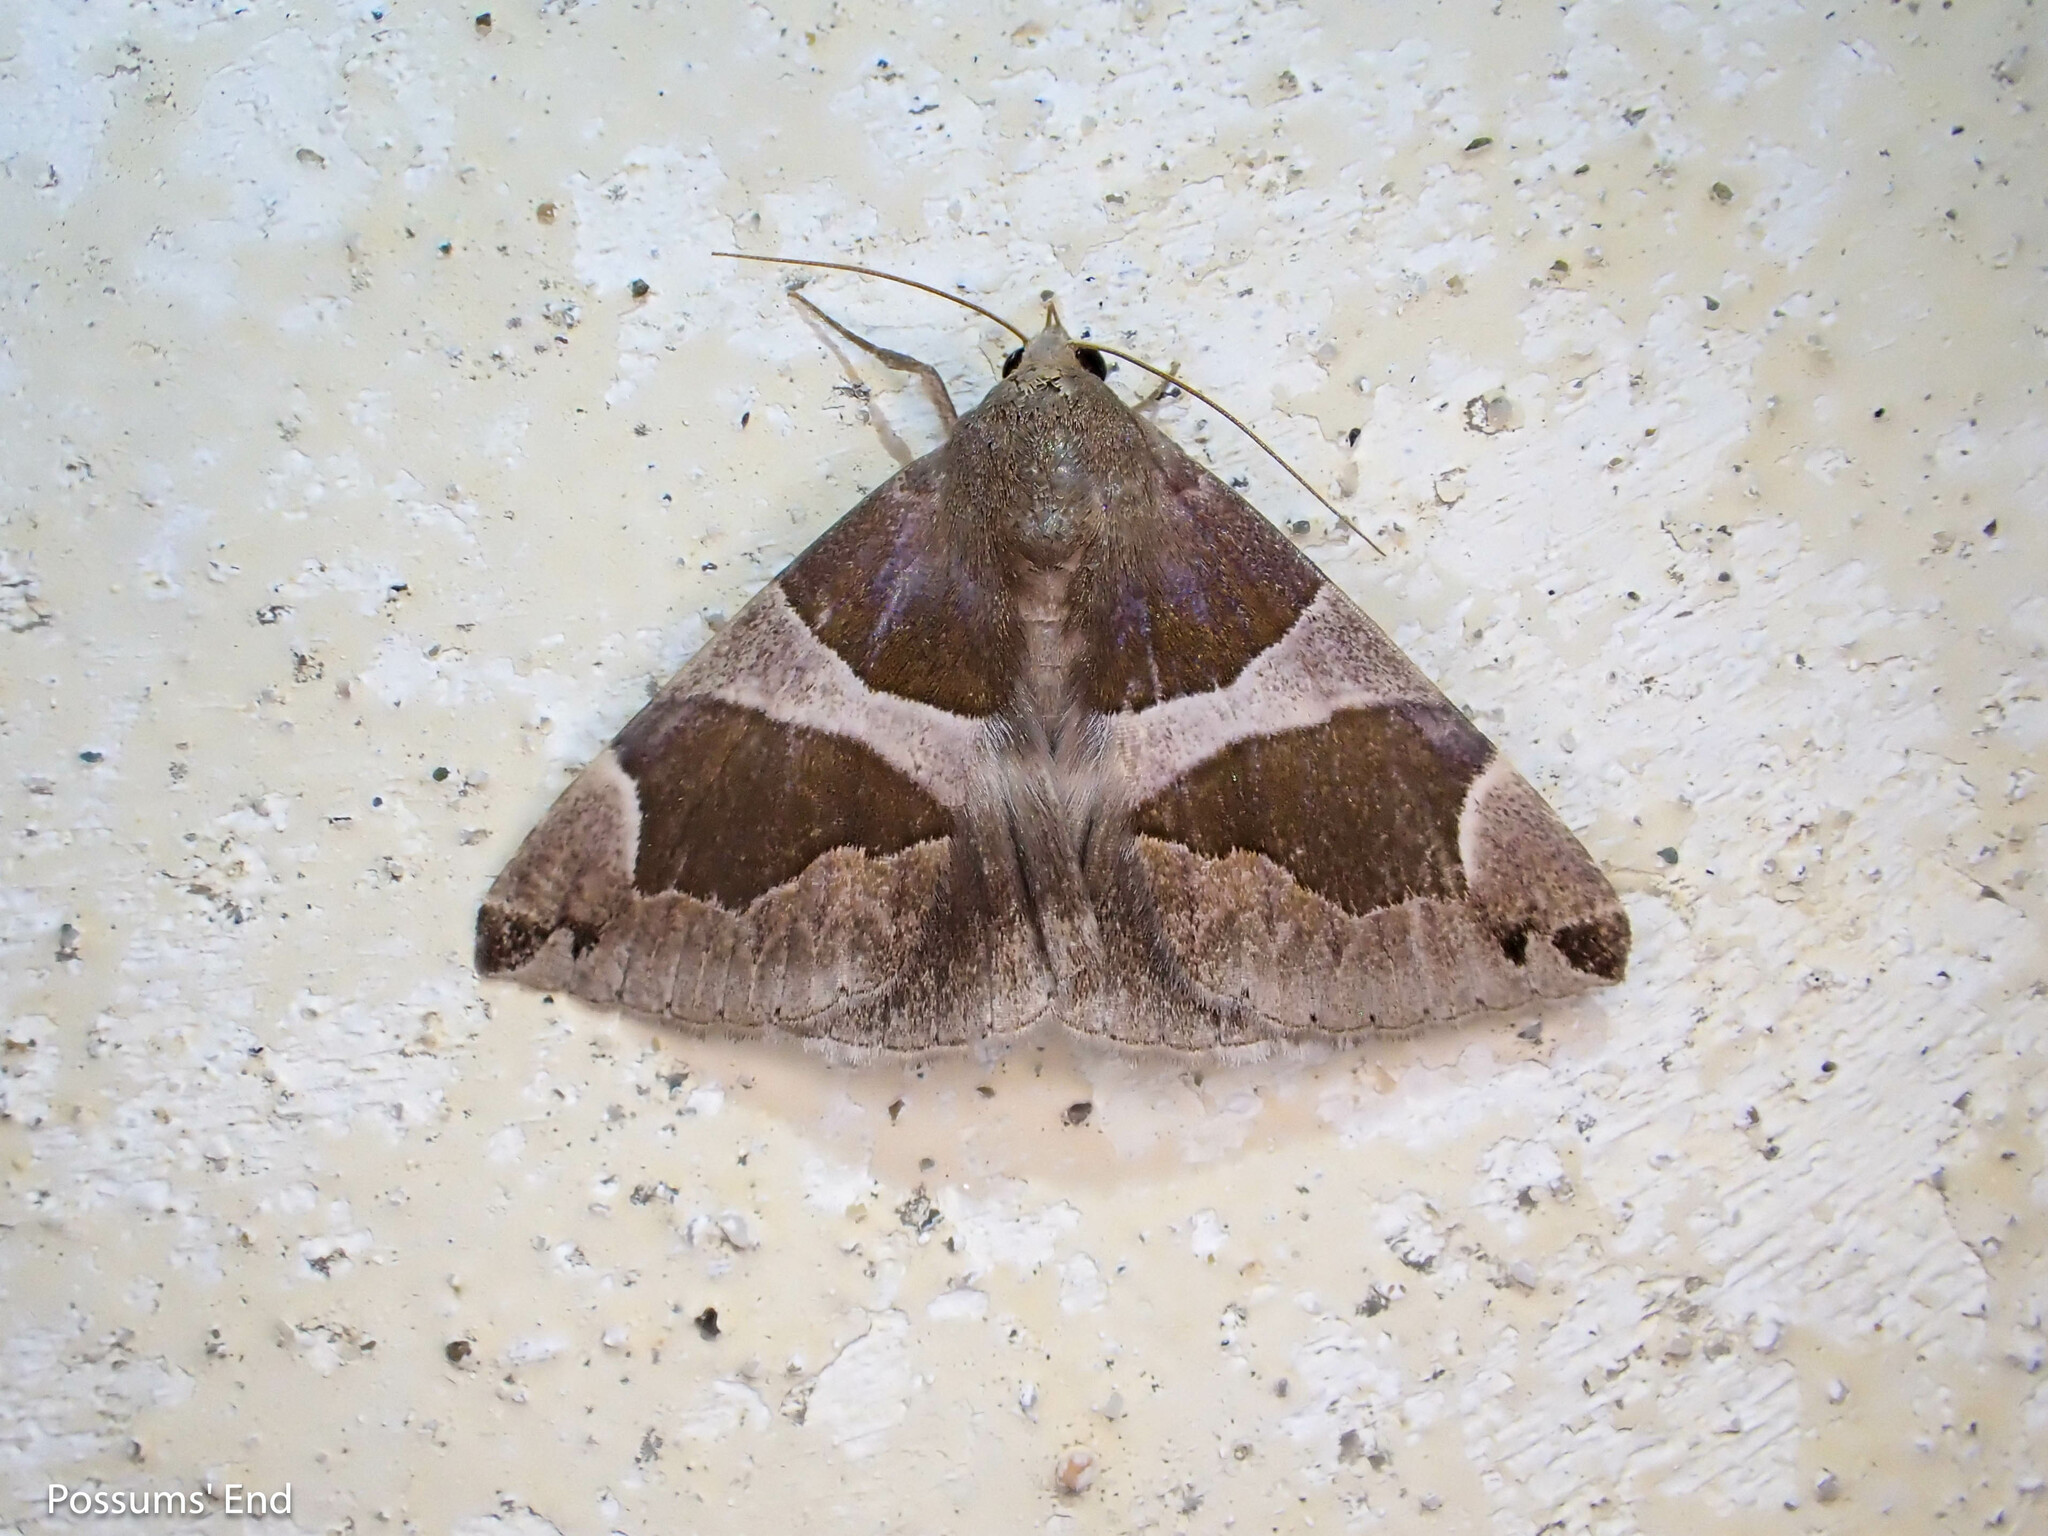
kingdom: Animalia
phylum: Arthropoda
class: Insecta
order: Lepidoptera
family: Erebidae
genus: Dysgonia
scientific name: Dysgonia algira
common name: Passenger
